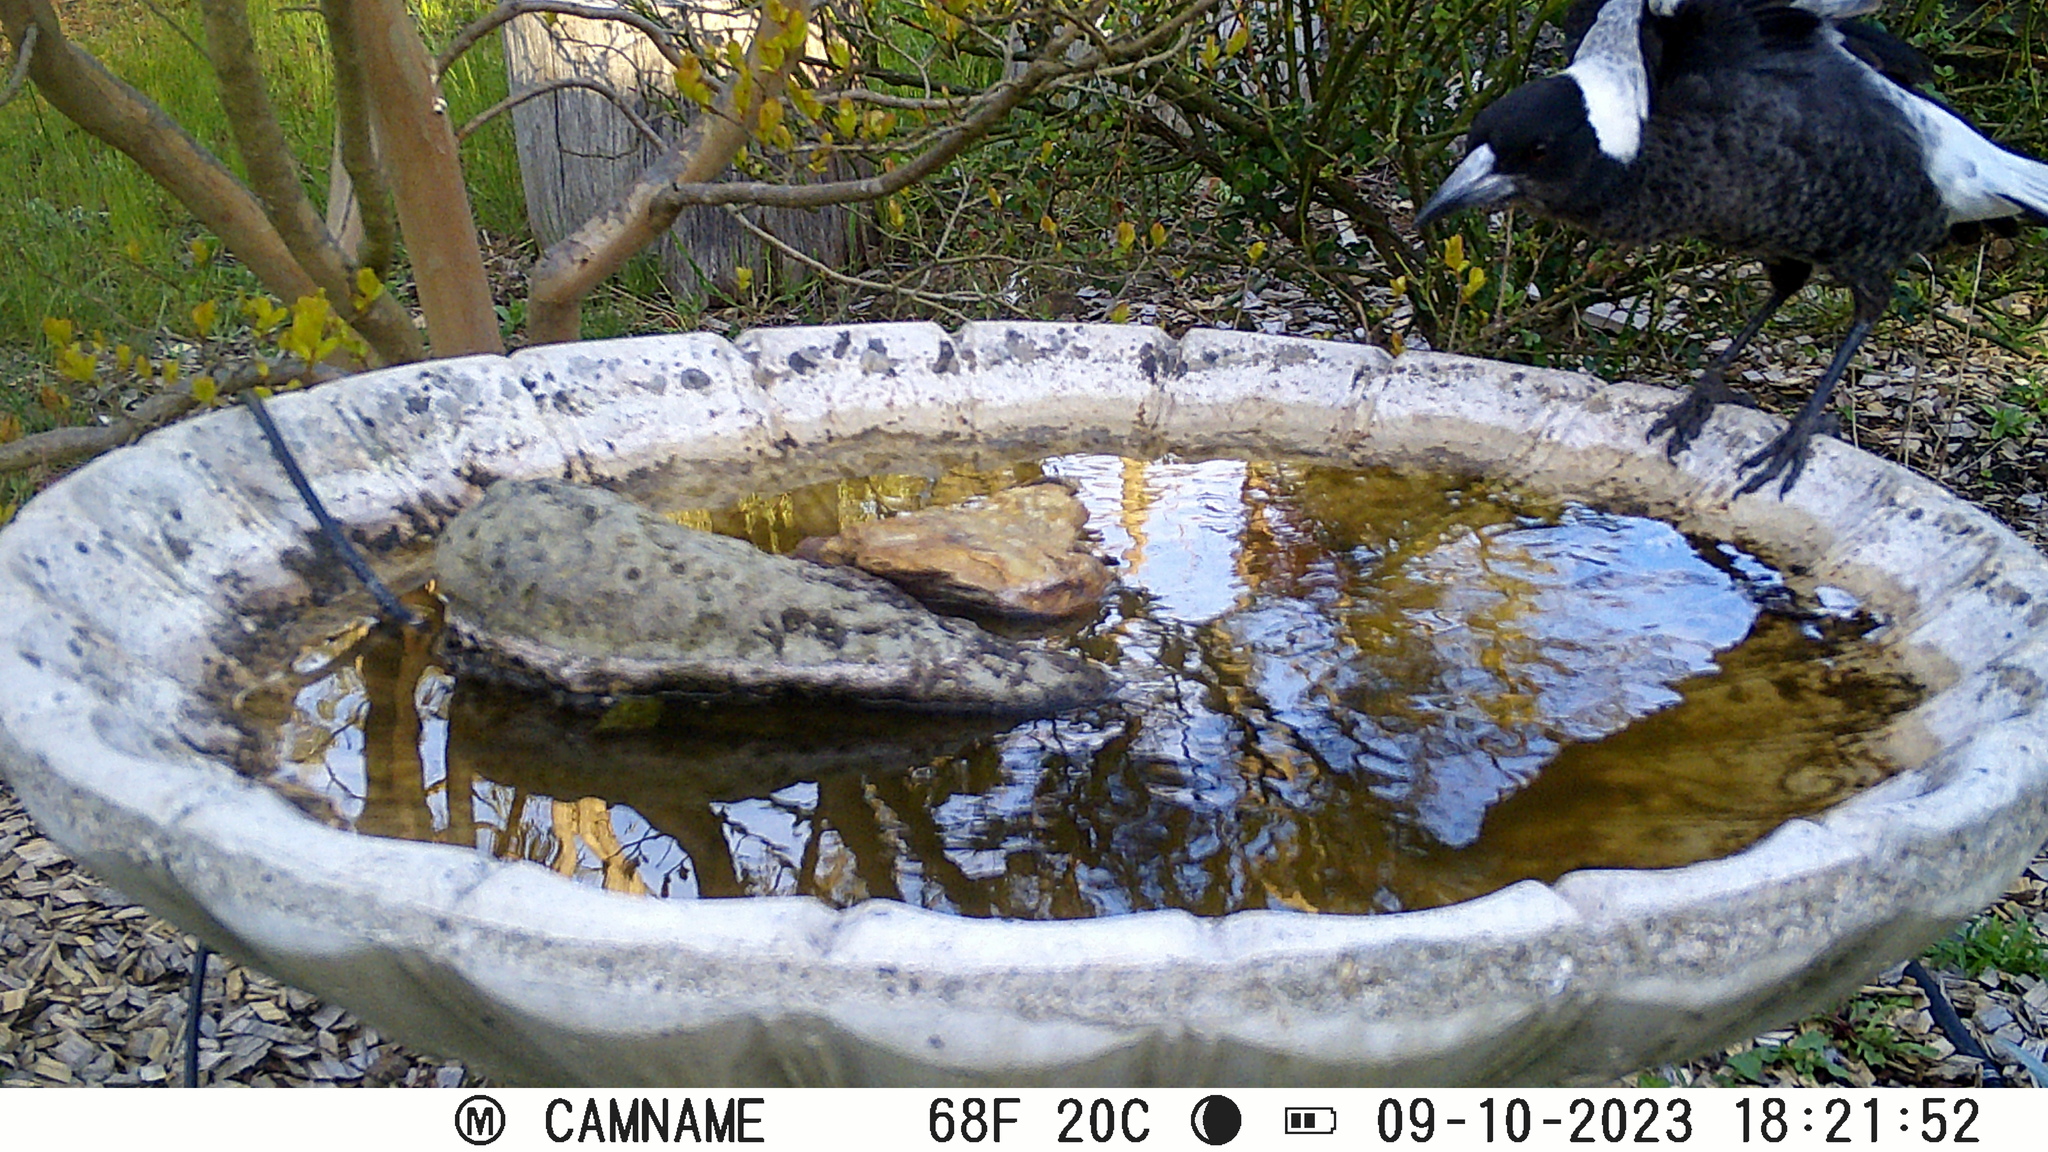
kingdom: Animalia
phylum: Chordata
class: Aves
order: Passeriformes
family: Cracticidae
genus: Gymnorhina
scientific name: Gymnorhina tibicen
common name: Australian magpie
